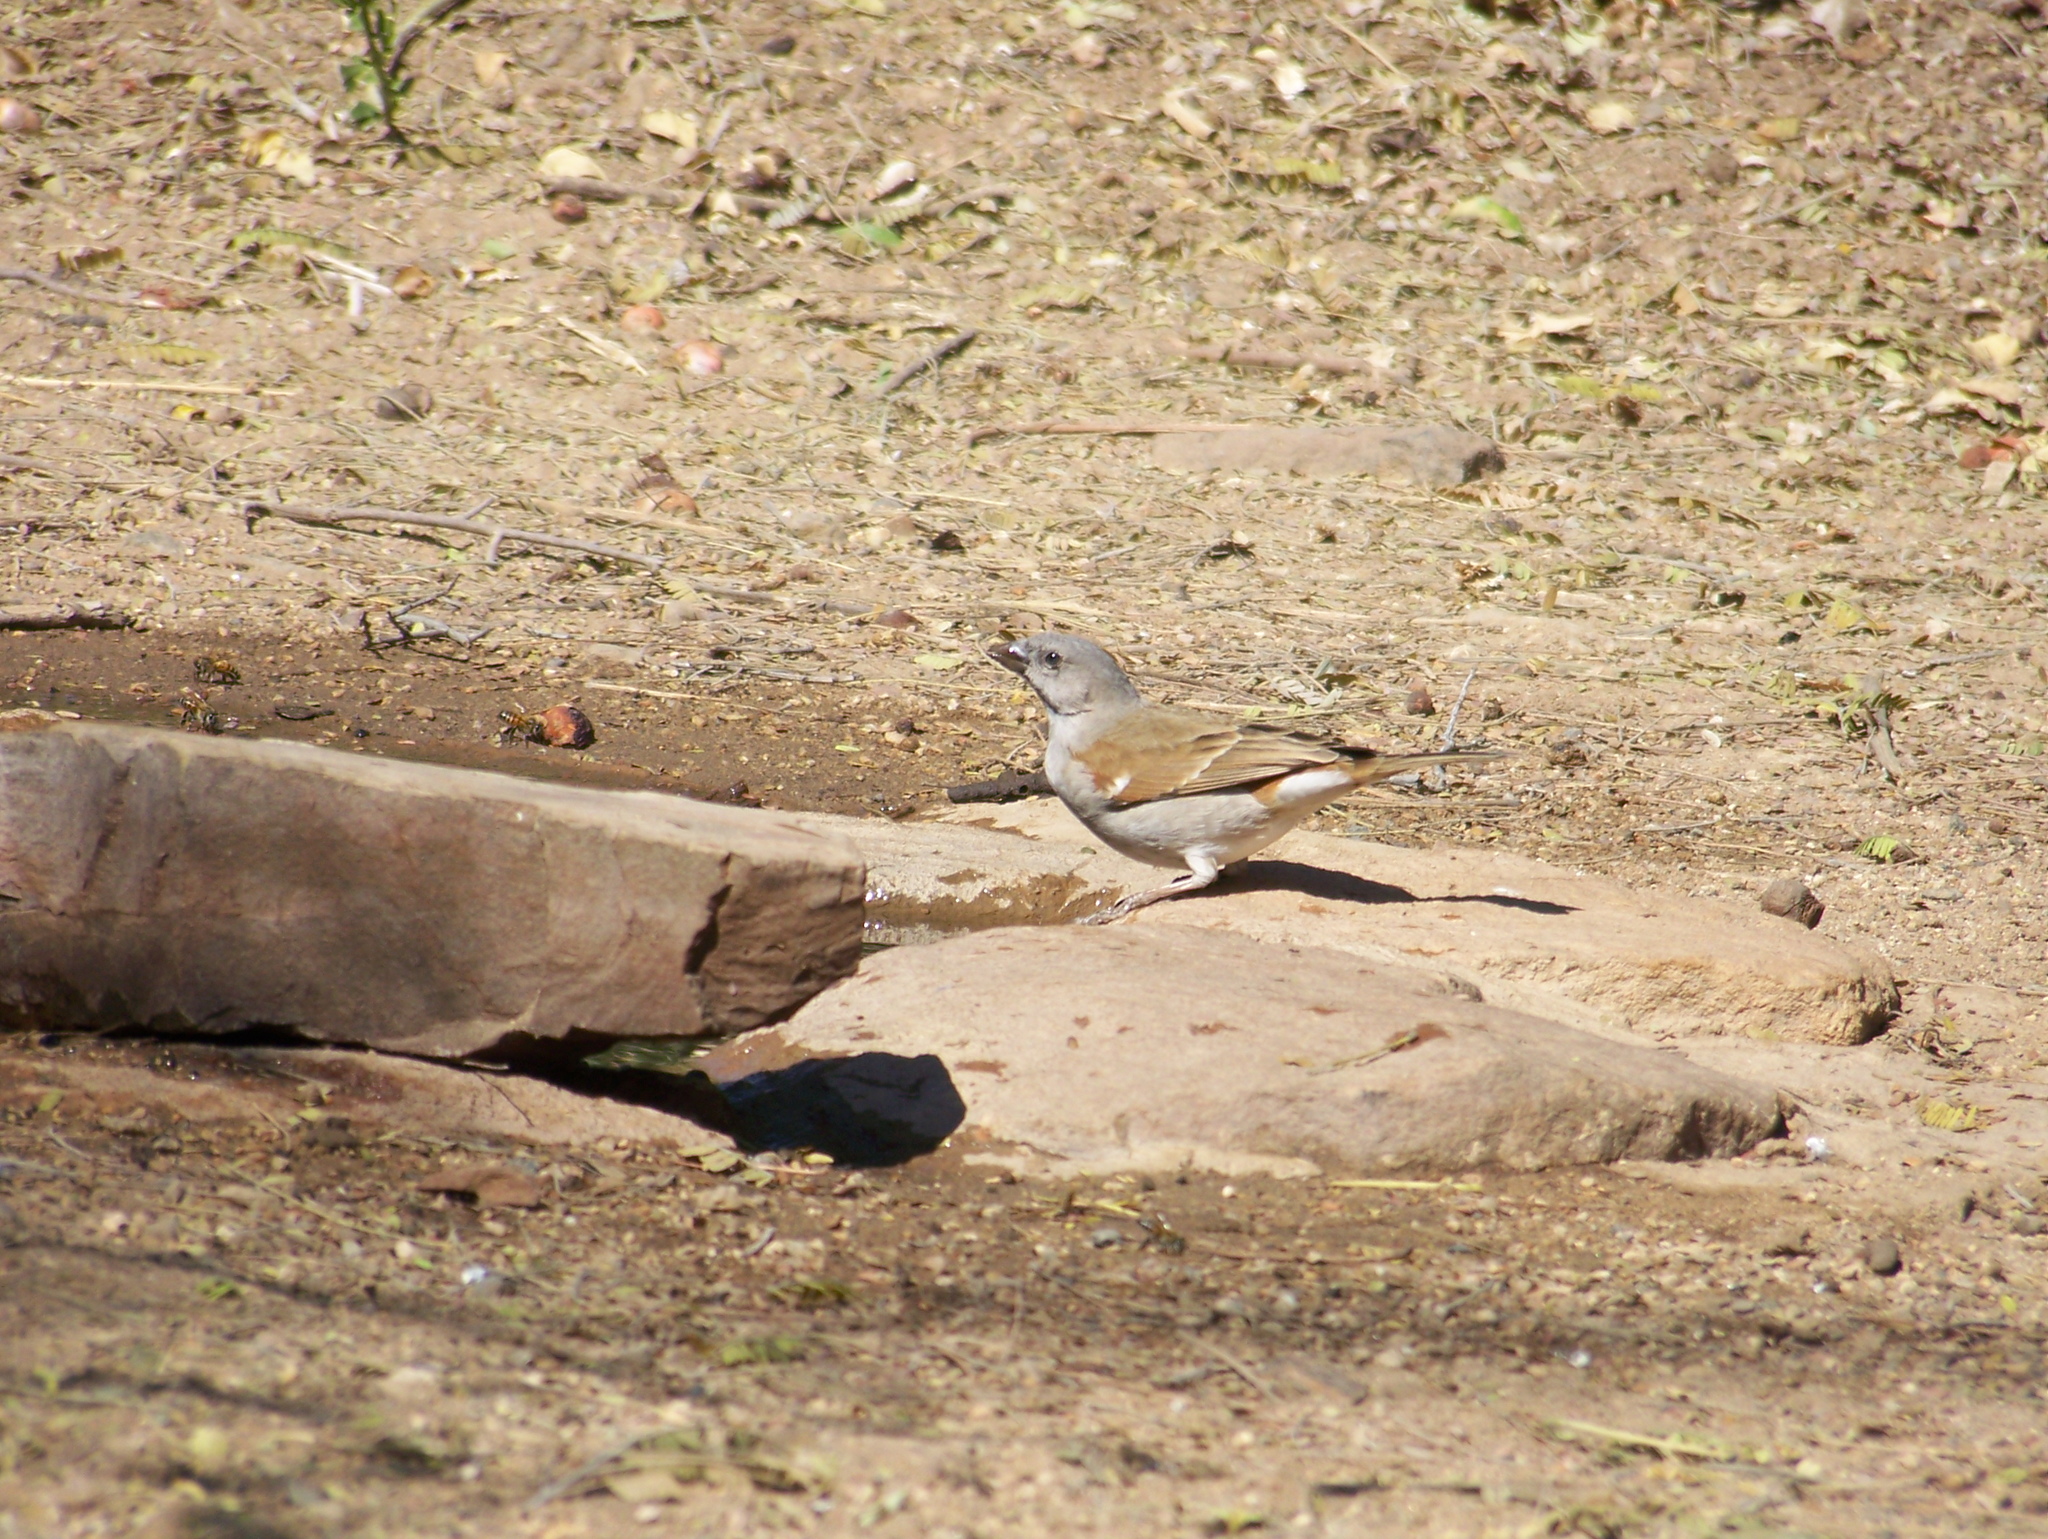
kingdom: Animalia
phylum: Chordata
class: Aves
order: Passeriformes
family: Passeridae
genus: Passer
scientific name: Passer diffusus
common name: Southern grey-headed sparrow
